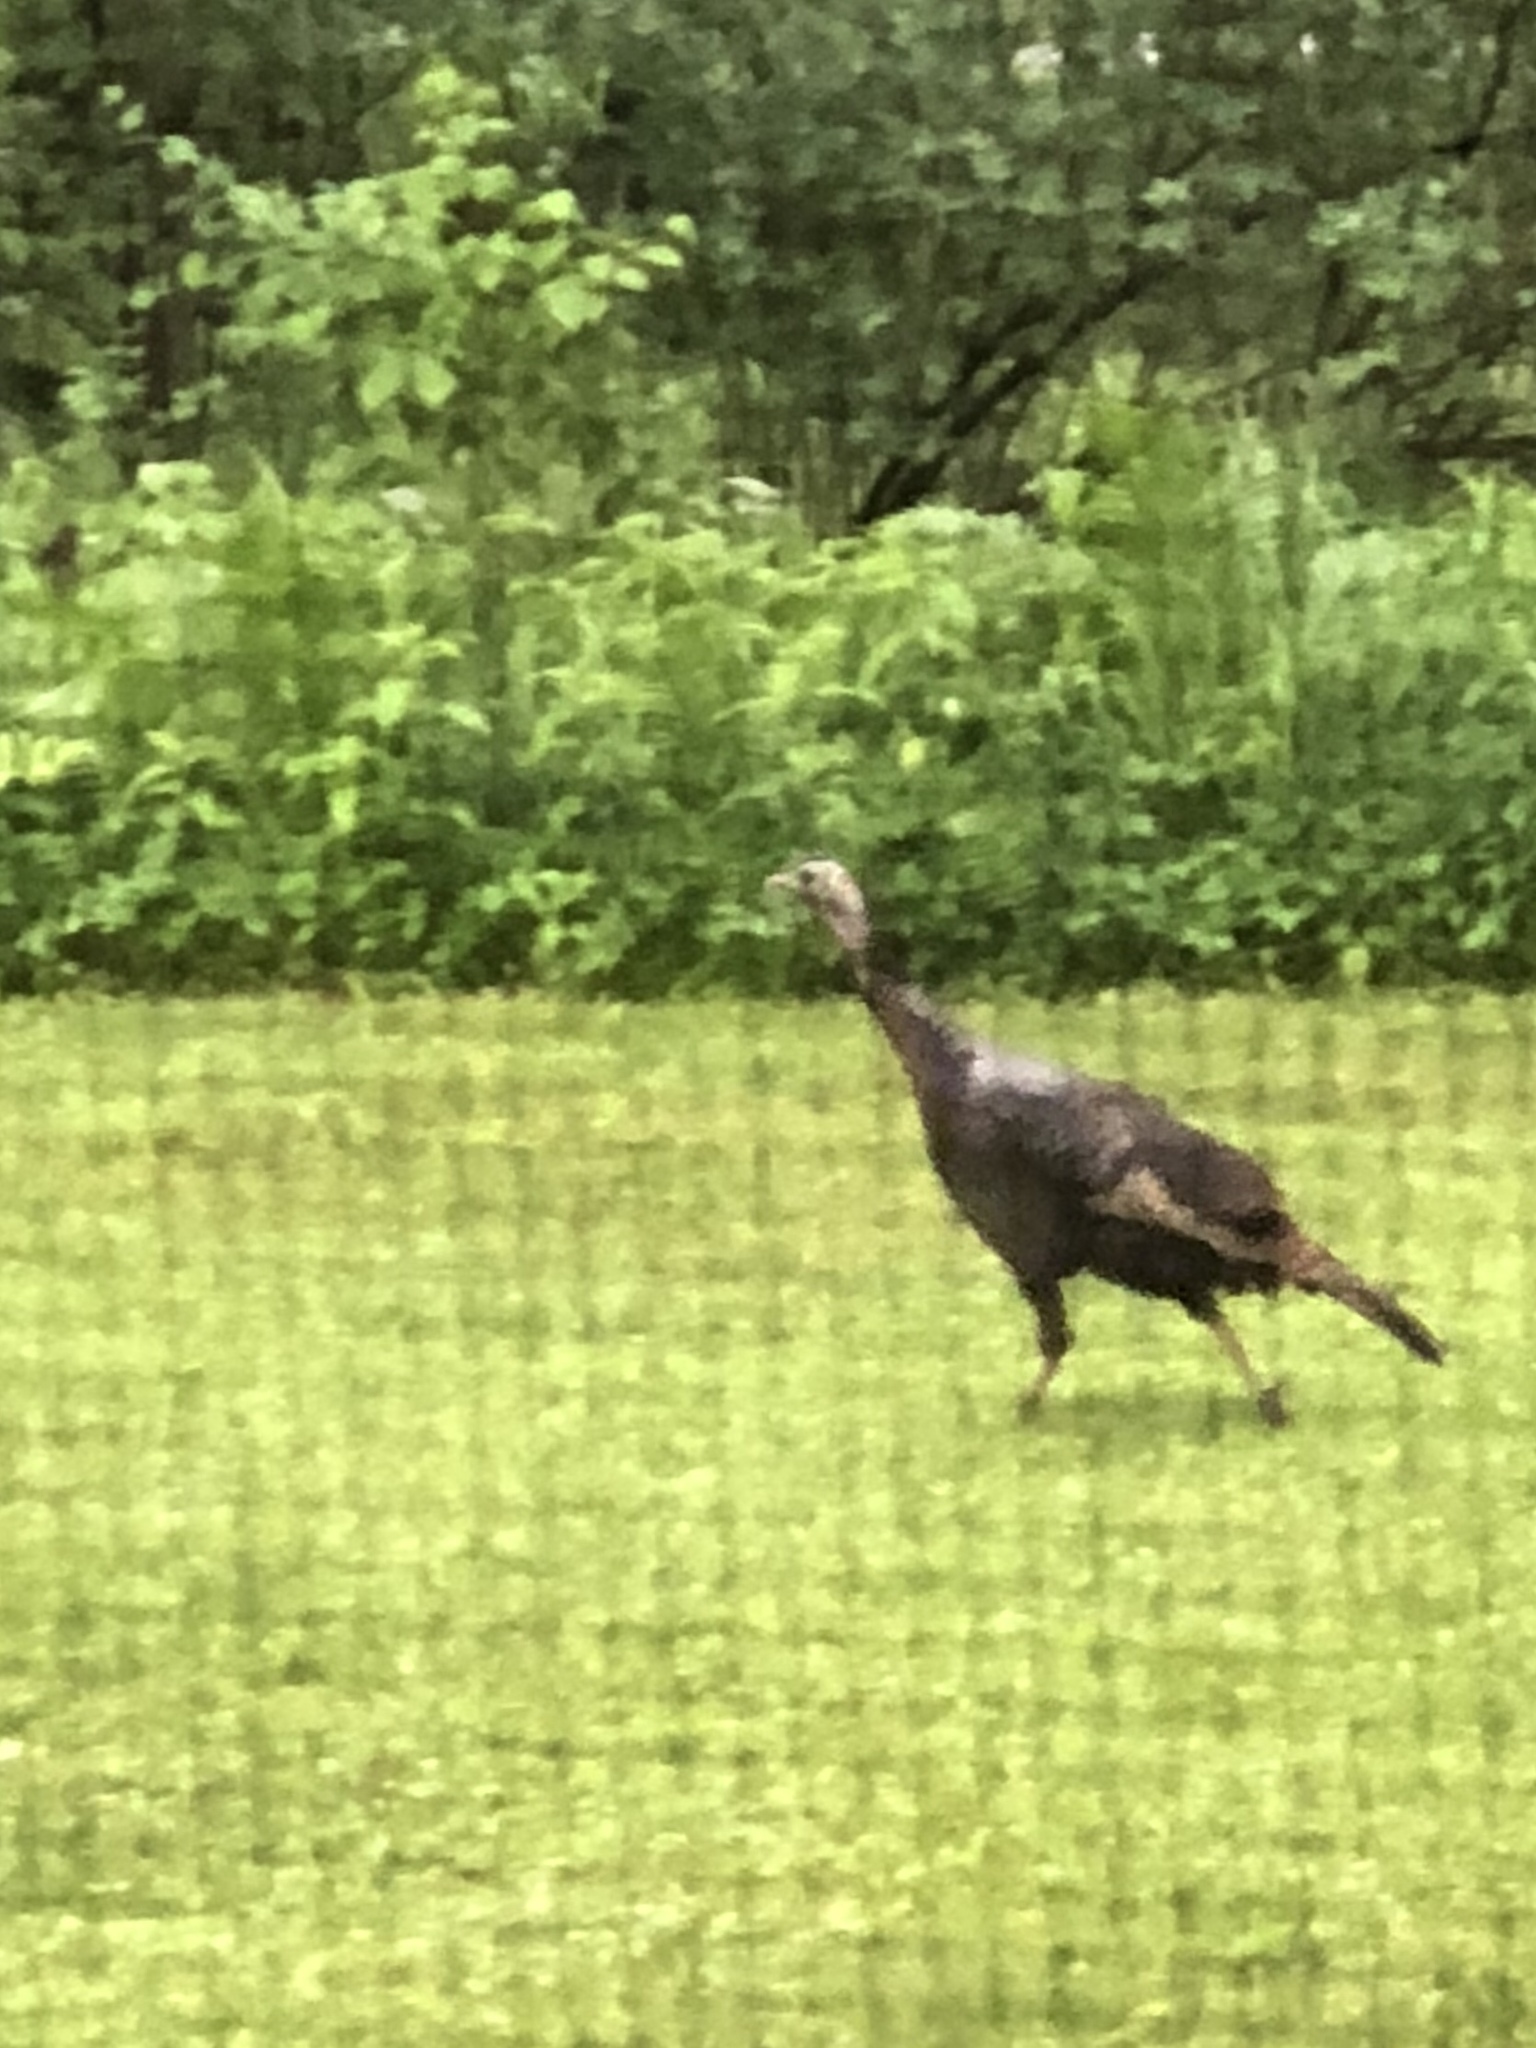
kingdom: Animalia
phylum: Chordata
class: Aves
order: Galliformes
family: Phasianidae
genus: Meleagris
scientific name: Meleagris gallopavo
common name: Wild turkey
